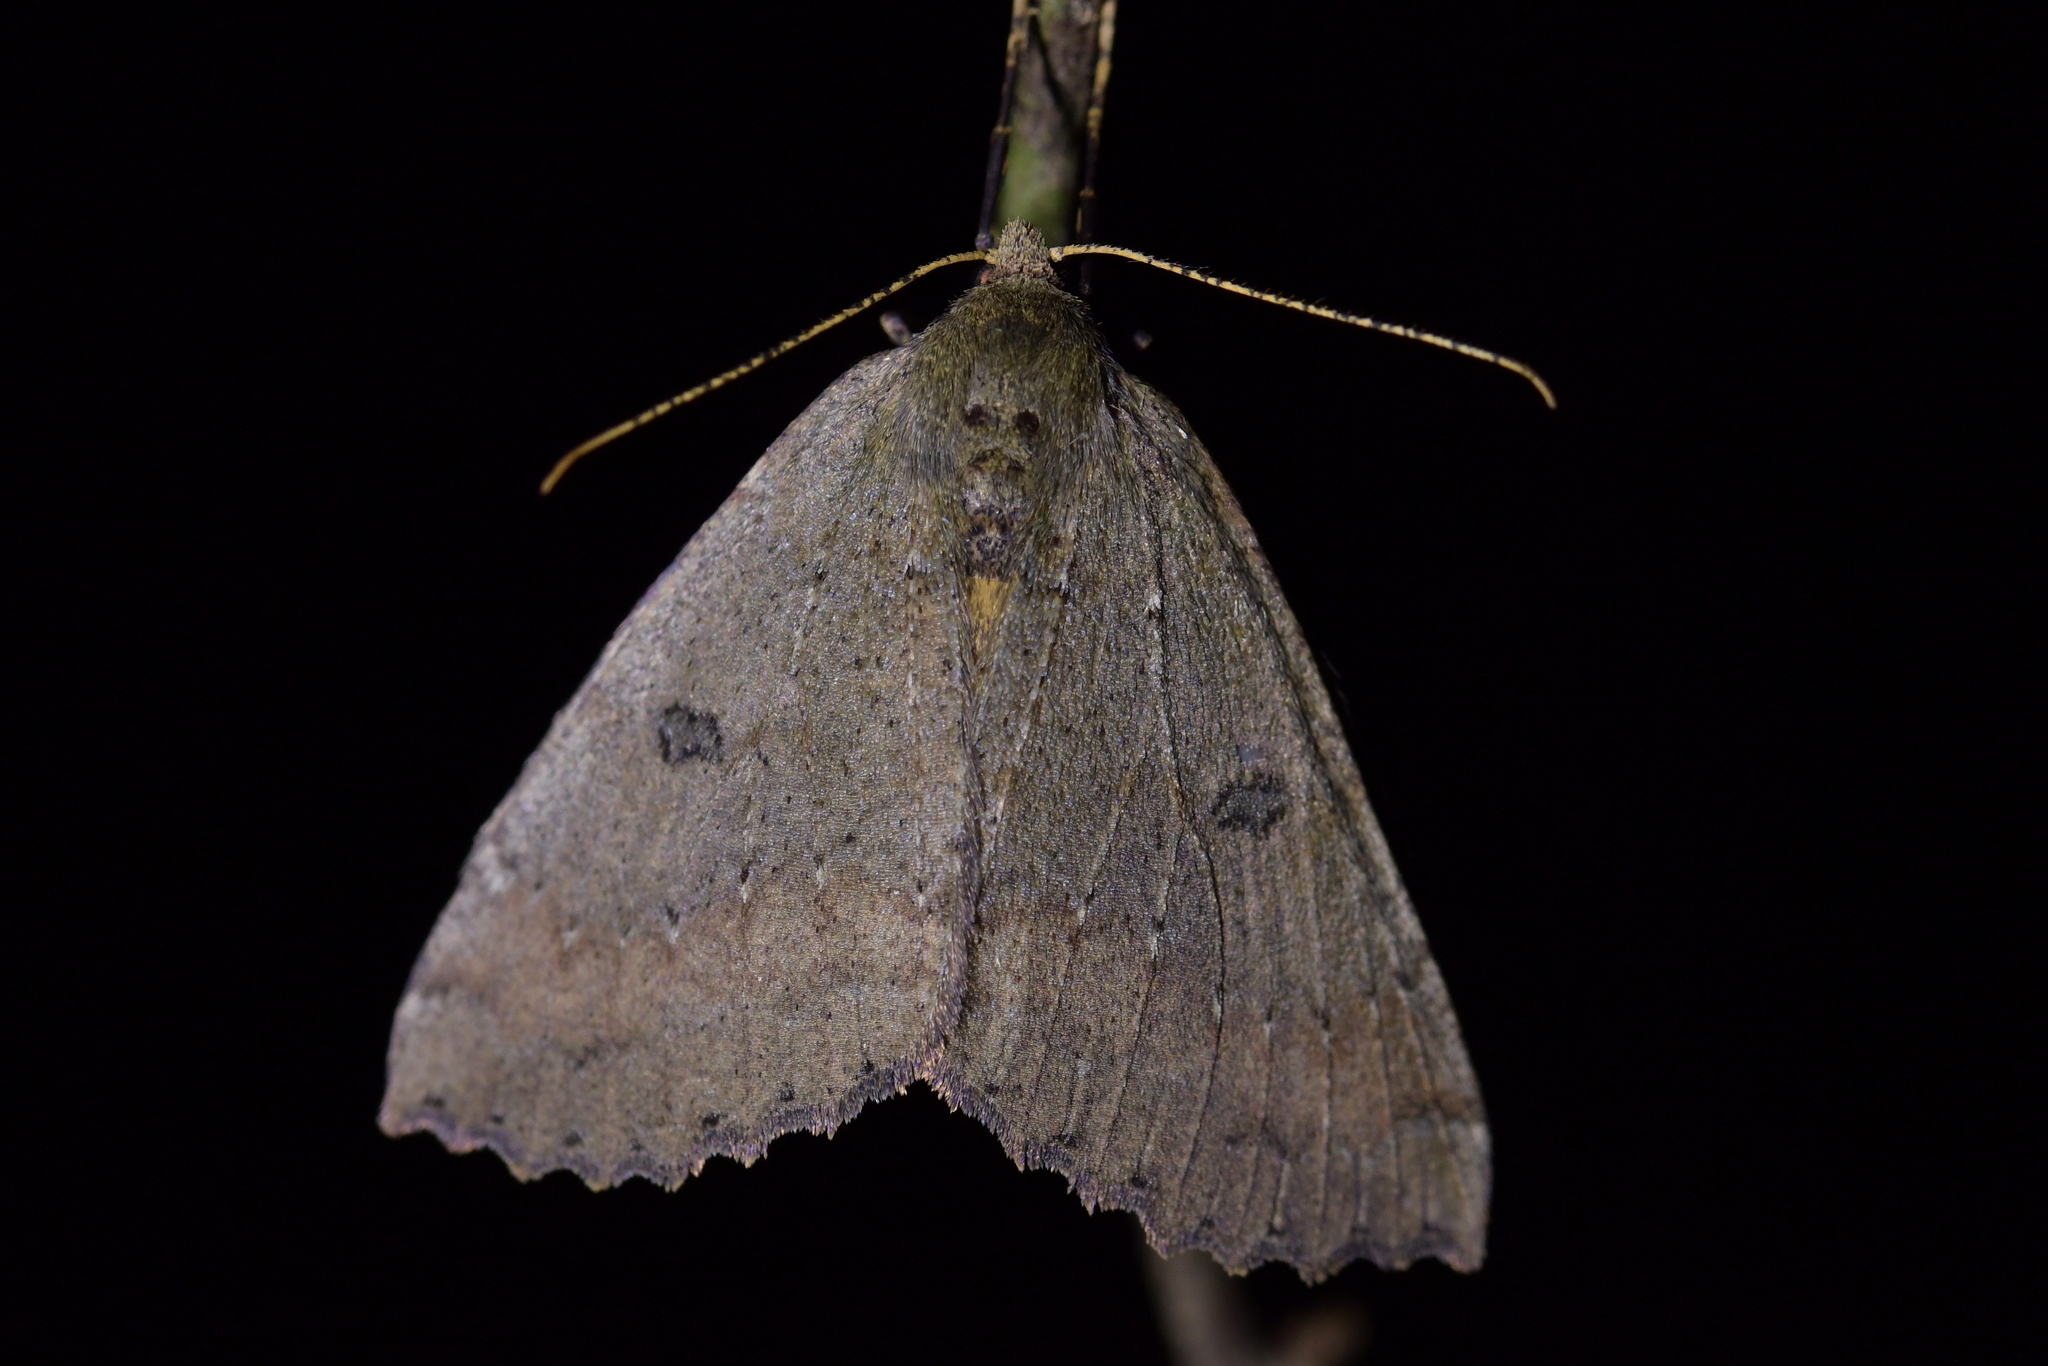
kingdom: Animalia
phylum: Arthropoda
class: Insecta
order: Lepidoptera
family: Geometridae
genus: Cleora
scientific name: Cleora scriptaria
